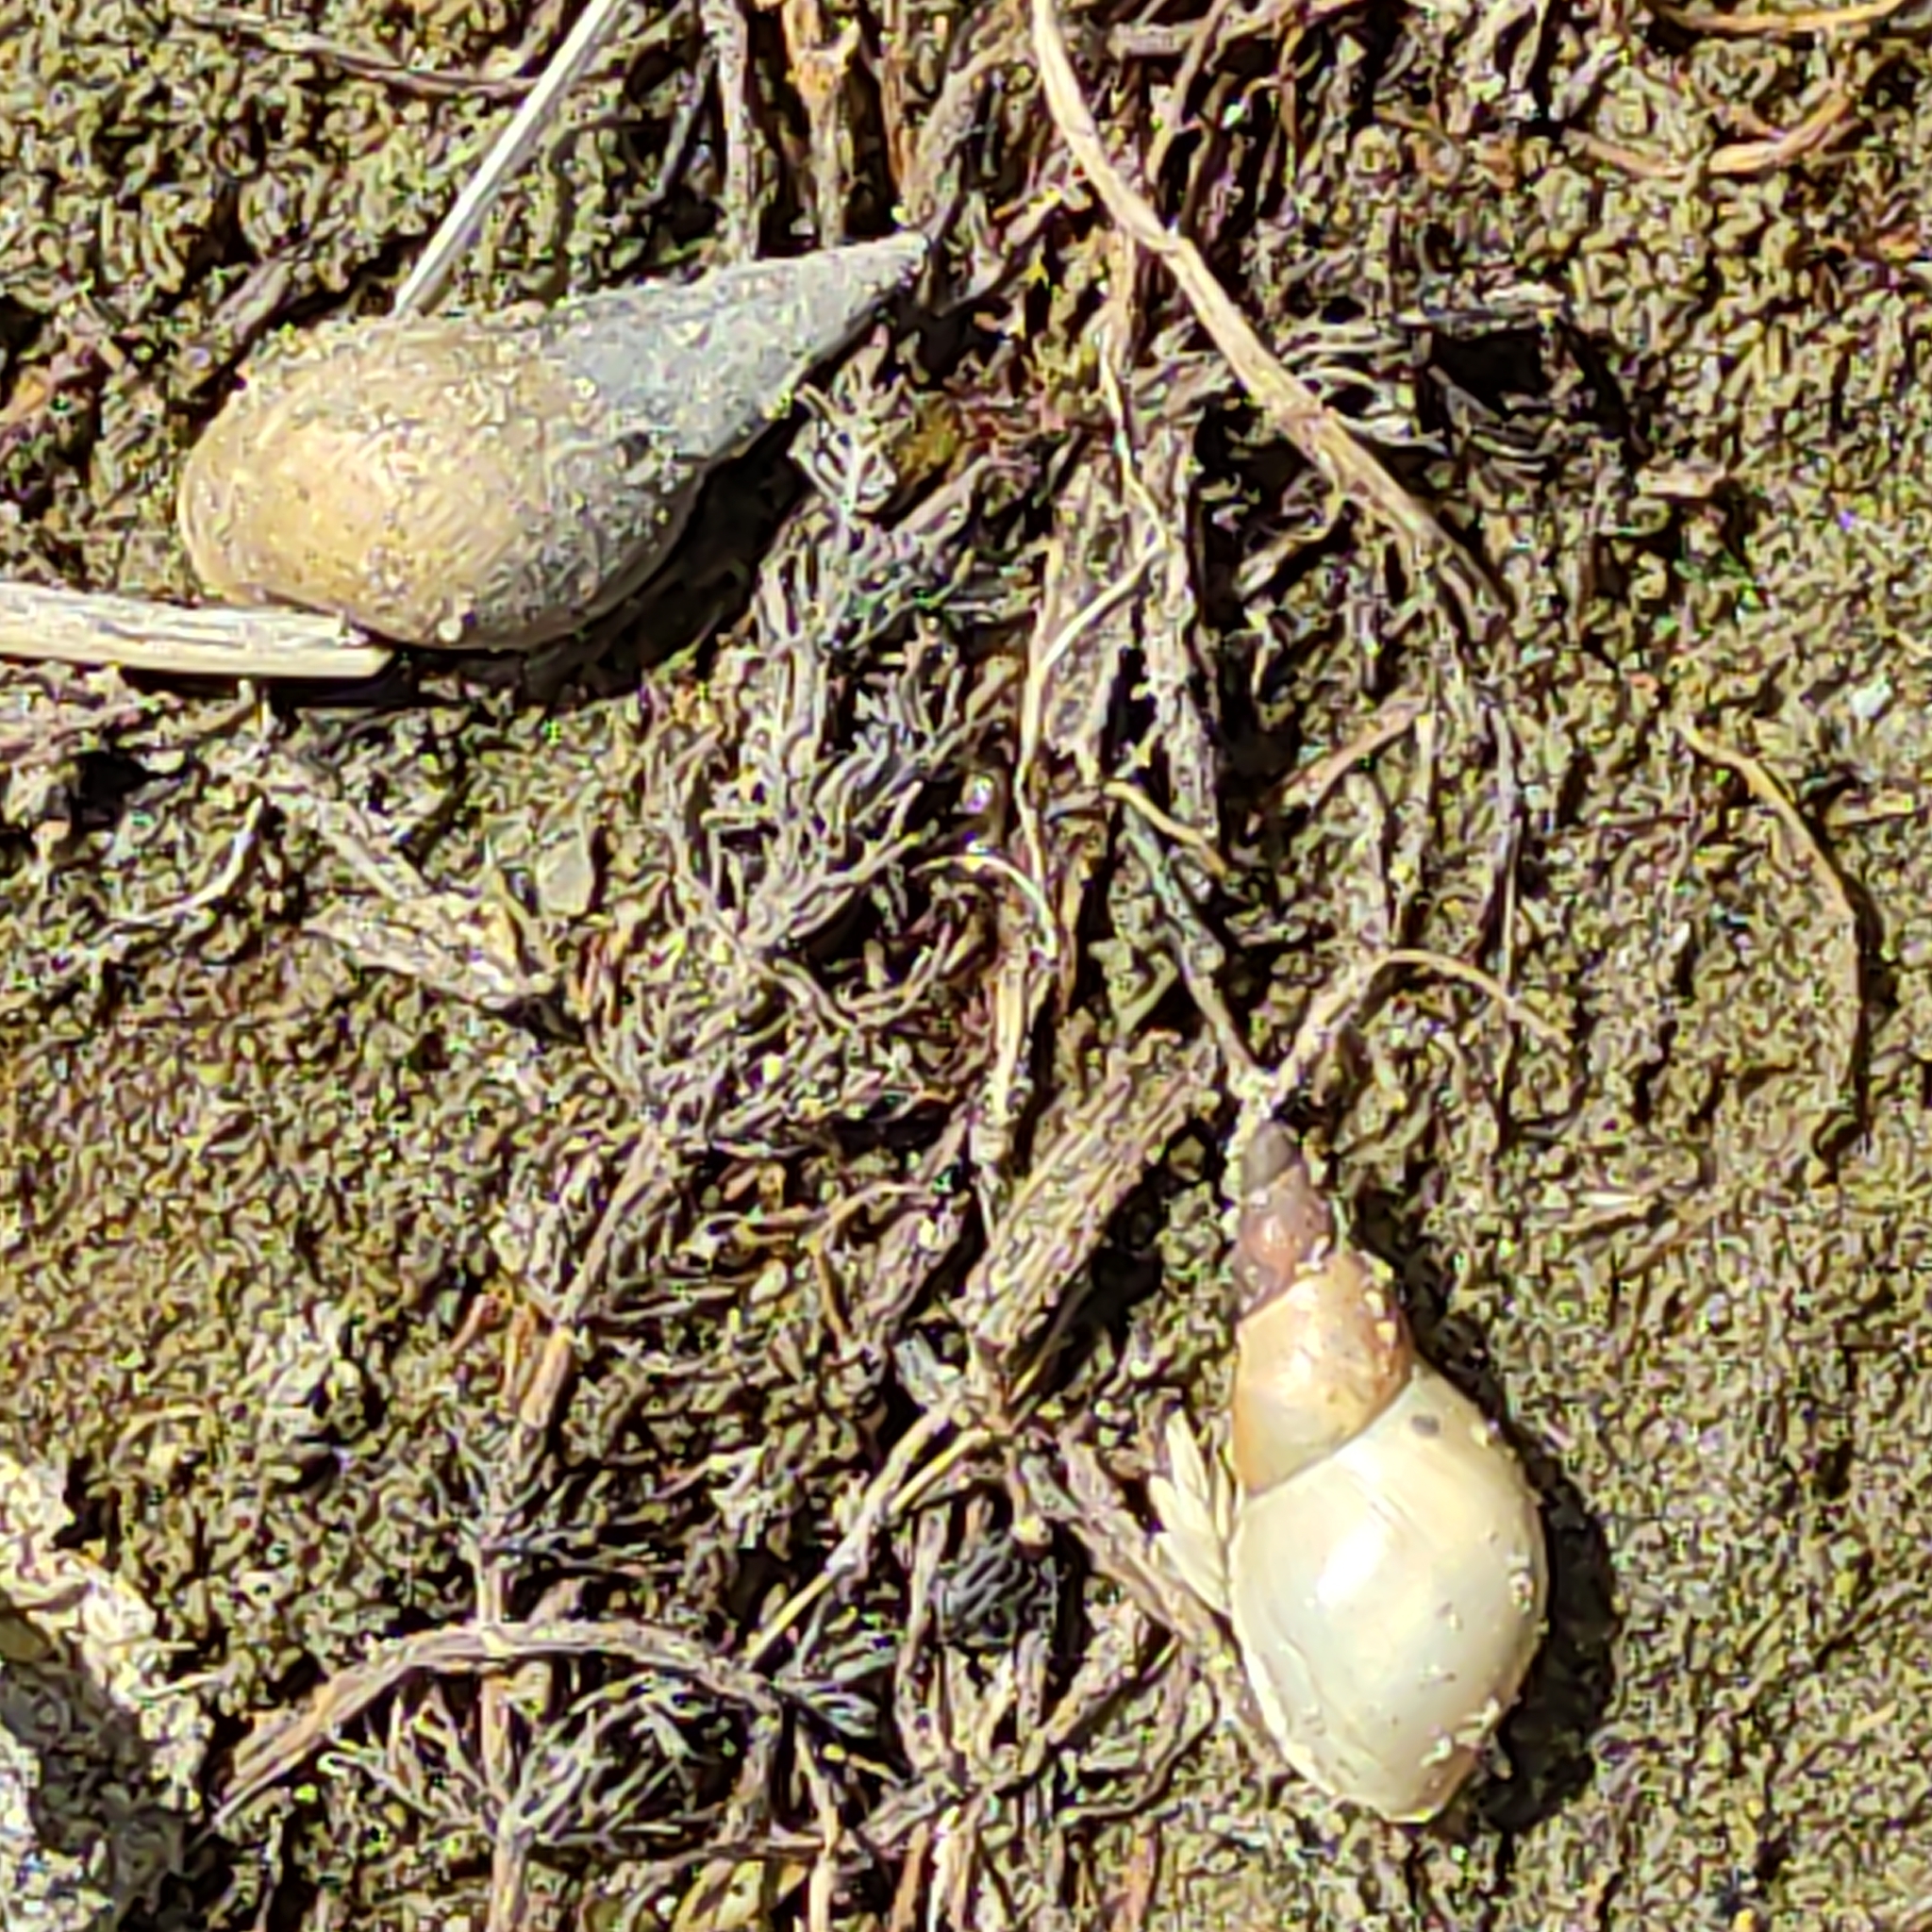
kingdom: Animalia
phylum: Mollusca
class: Gastropoda
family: Lymnaeidae
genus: Lymnaea
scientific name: Lymnaea stagnalis
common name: Great pond snail
